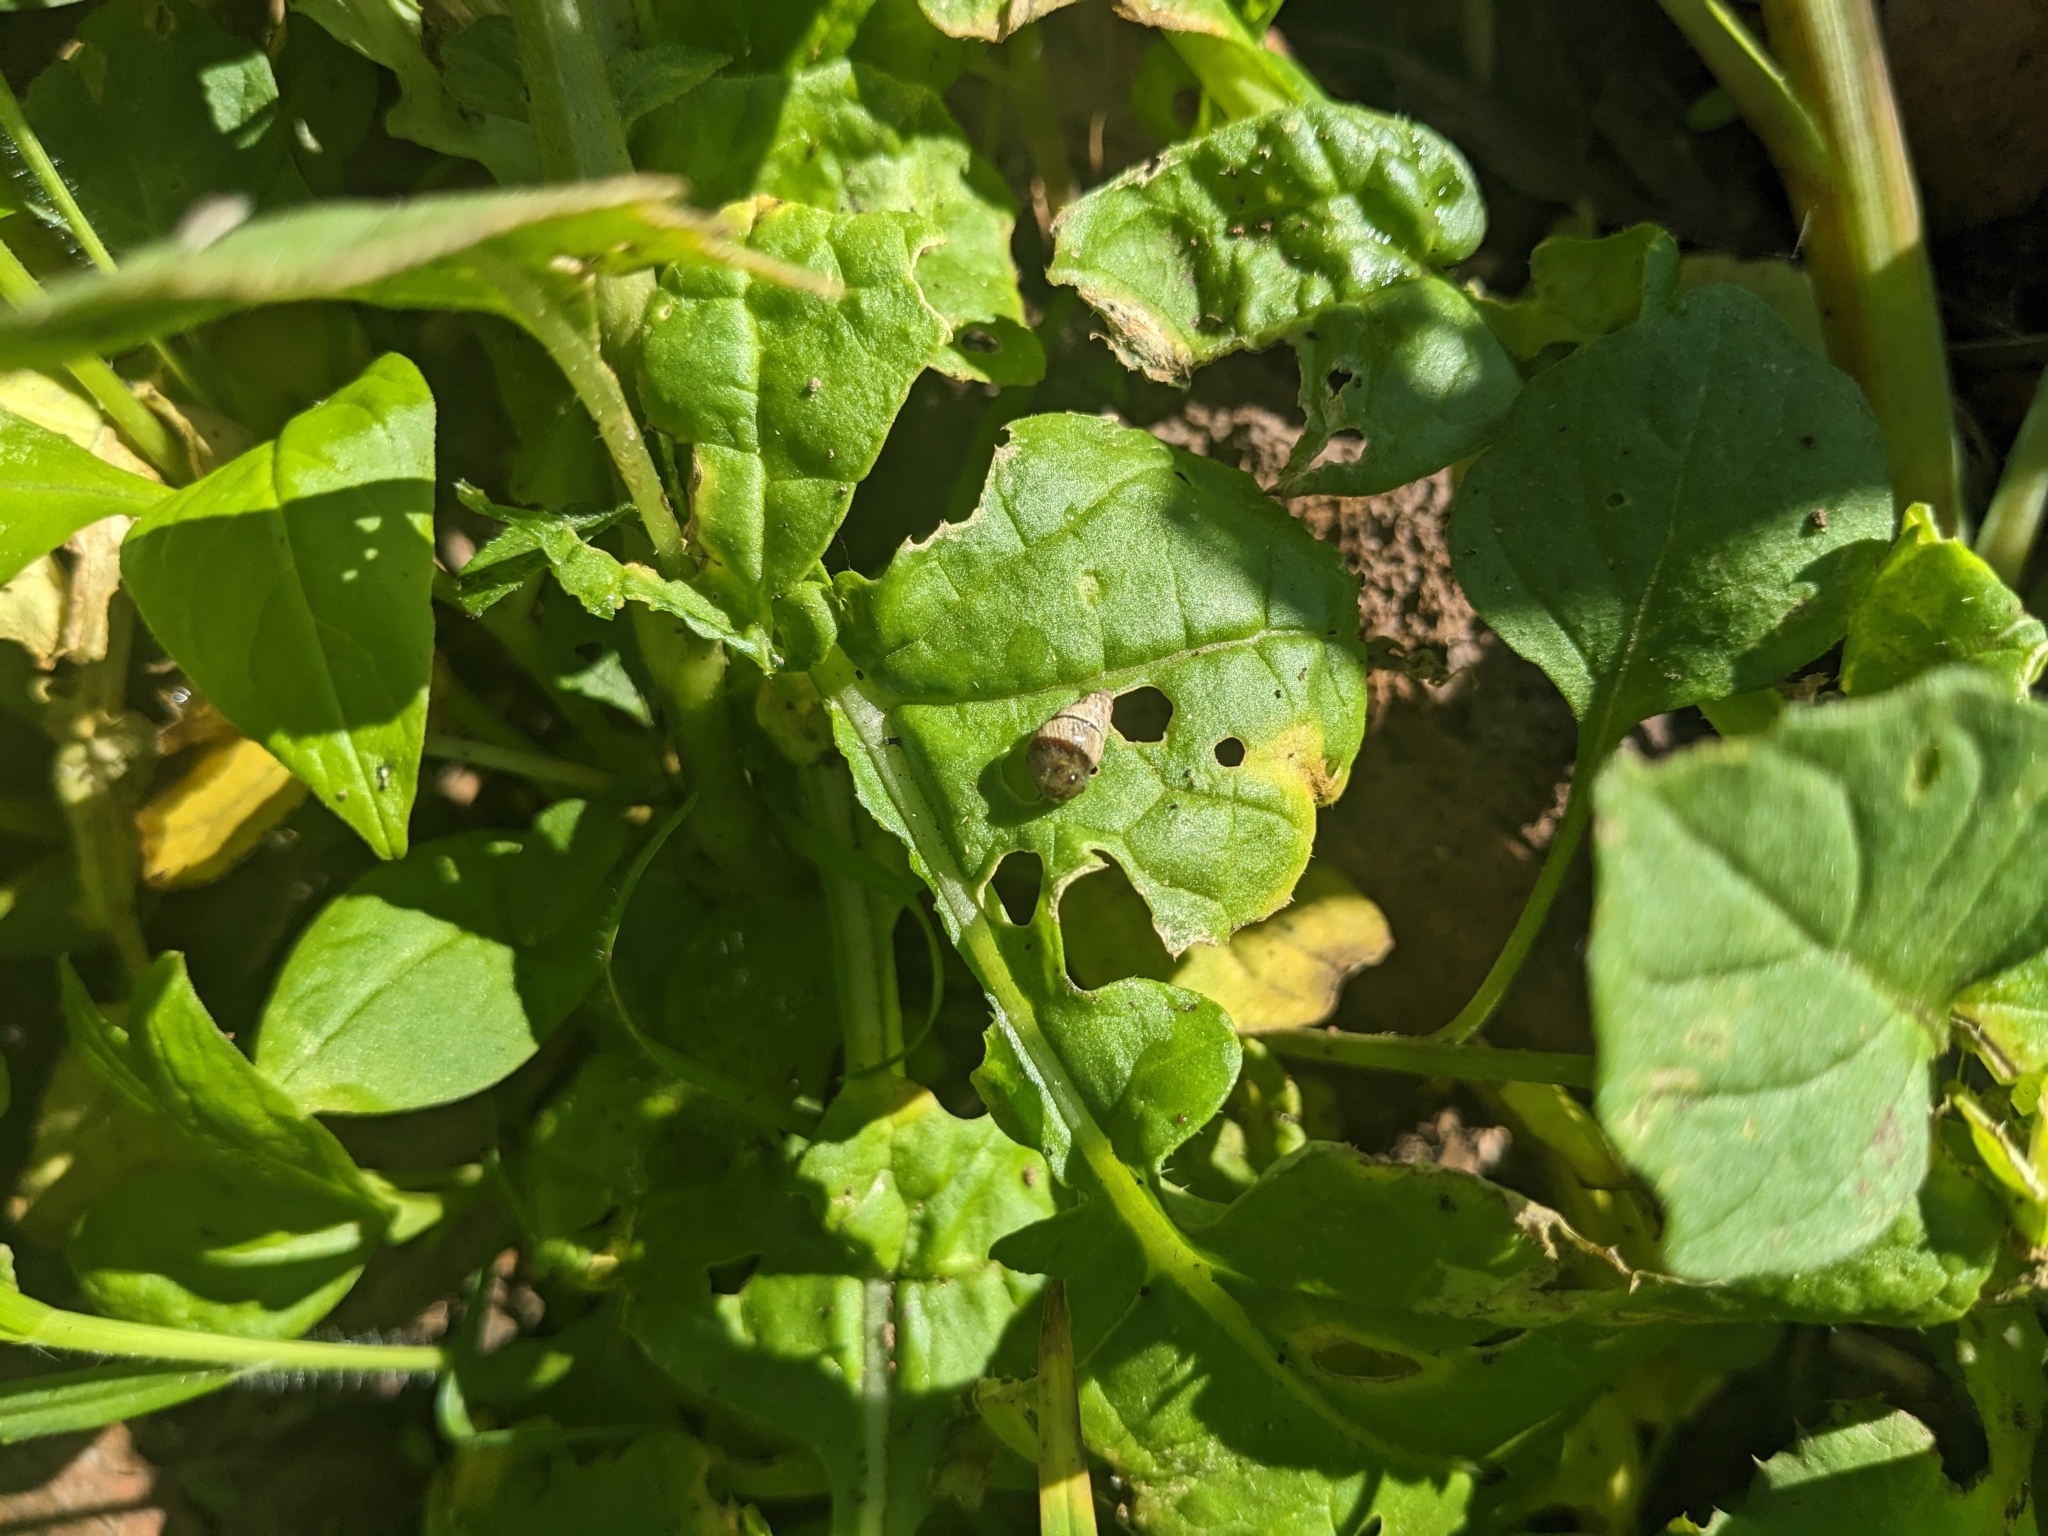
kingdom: Animalia
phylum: Mollusca
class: Gastropoda
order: Stylommatophora
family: Geomitridae
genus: Cochlicella
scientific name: Cochlicella barbara
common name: Potbellied helicellid
